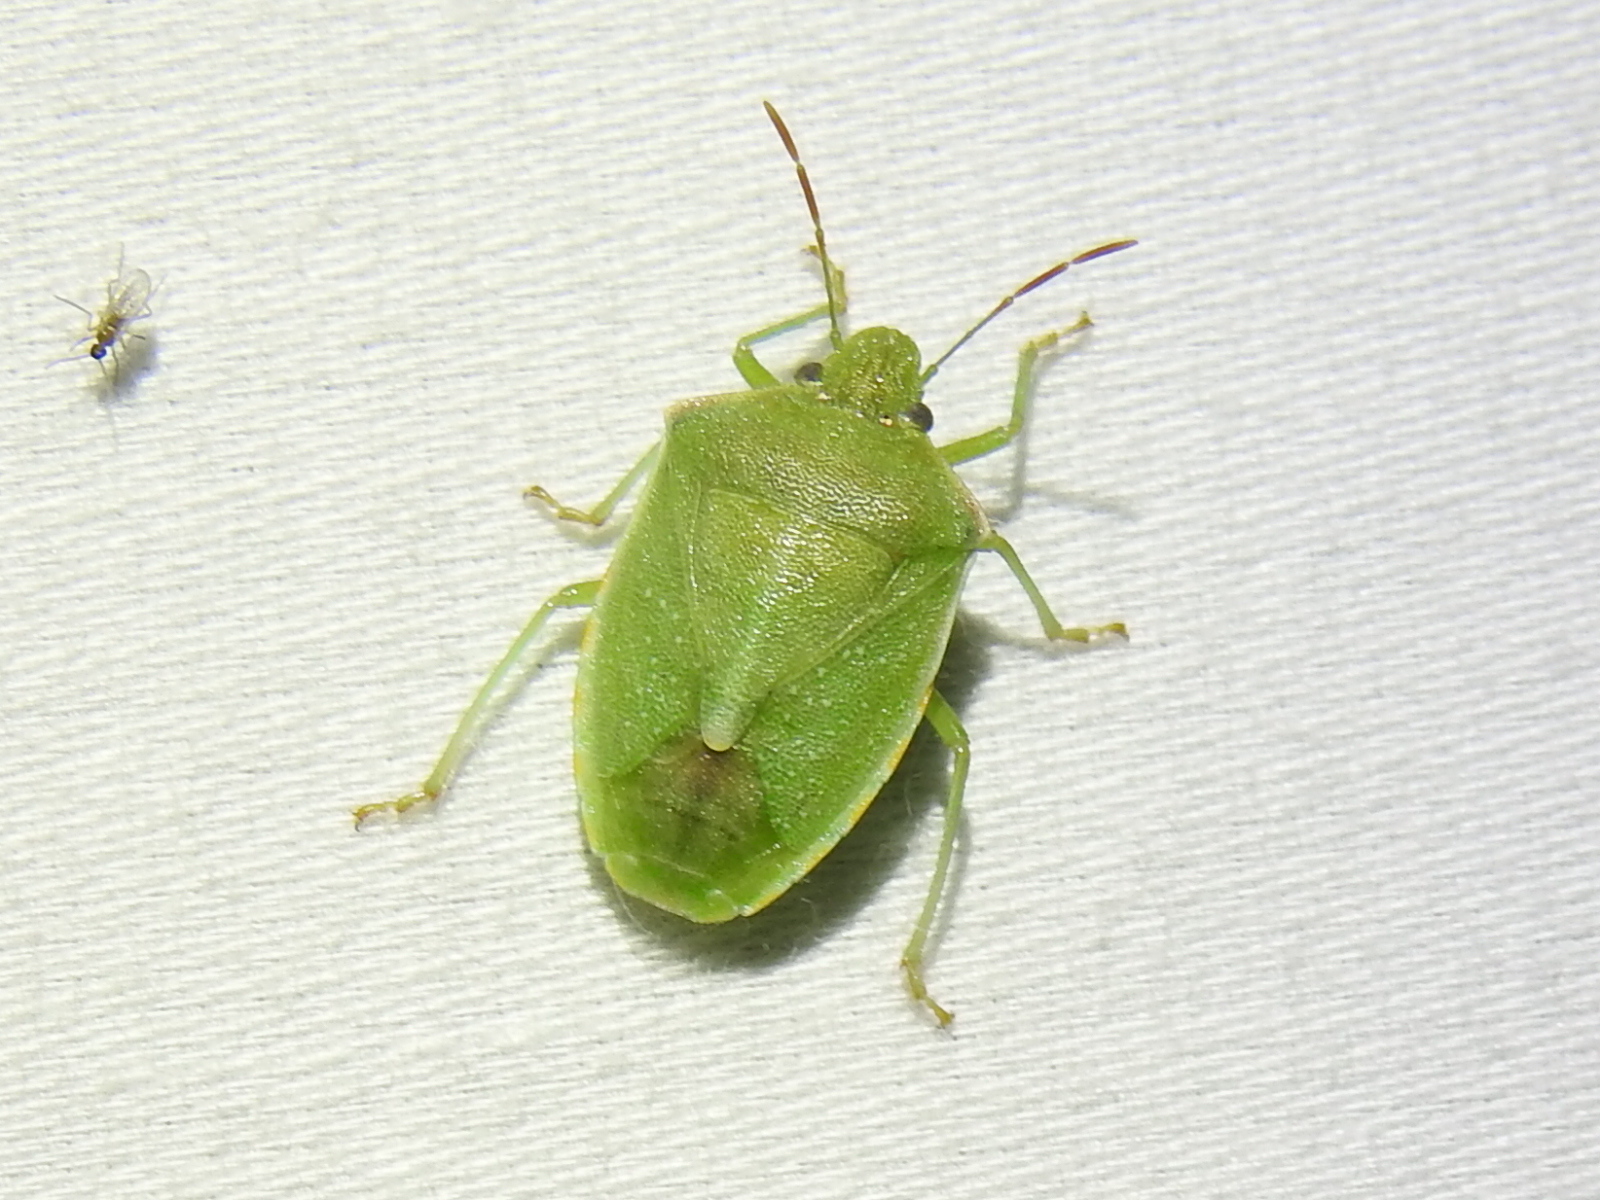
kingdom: Animalia
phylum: Arthropoda
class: Insecta
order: Hemiptera
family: Pentatomidae
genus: Thyanta
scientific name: Thyanta accerra
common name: Stink bug
